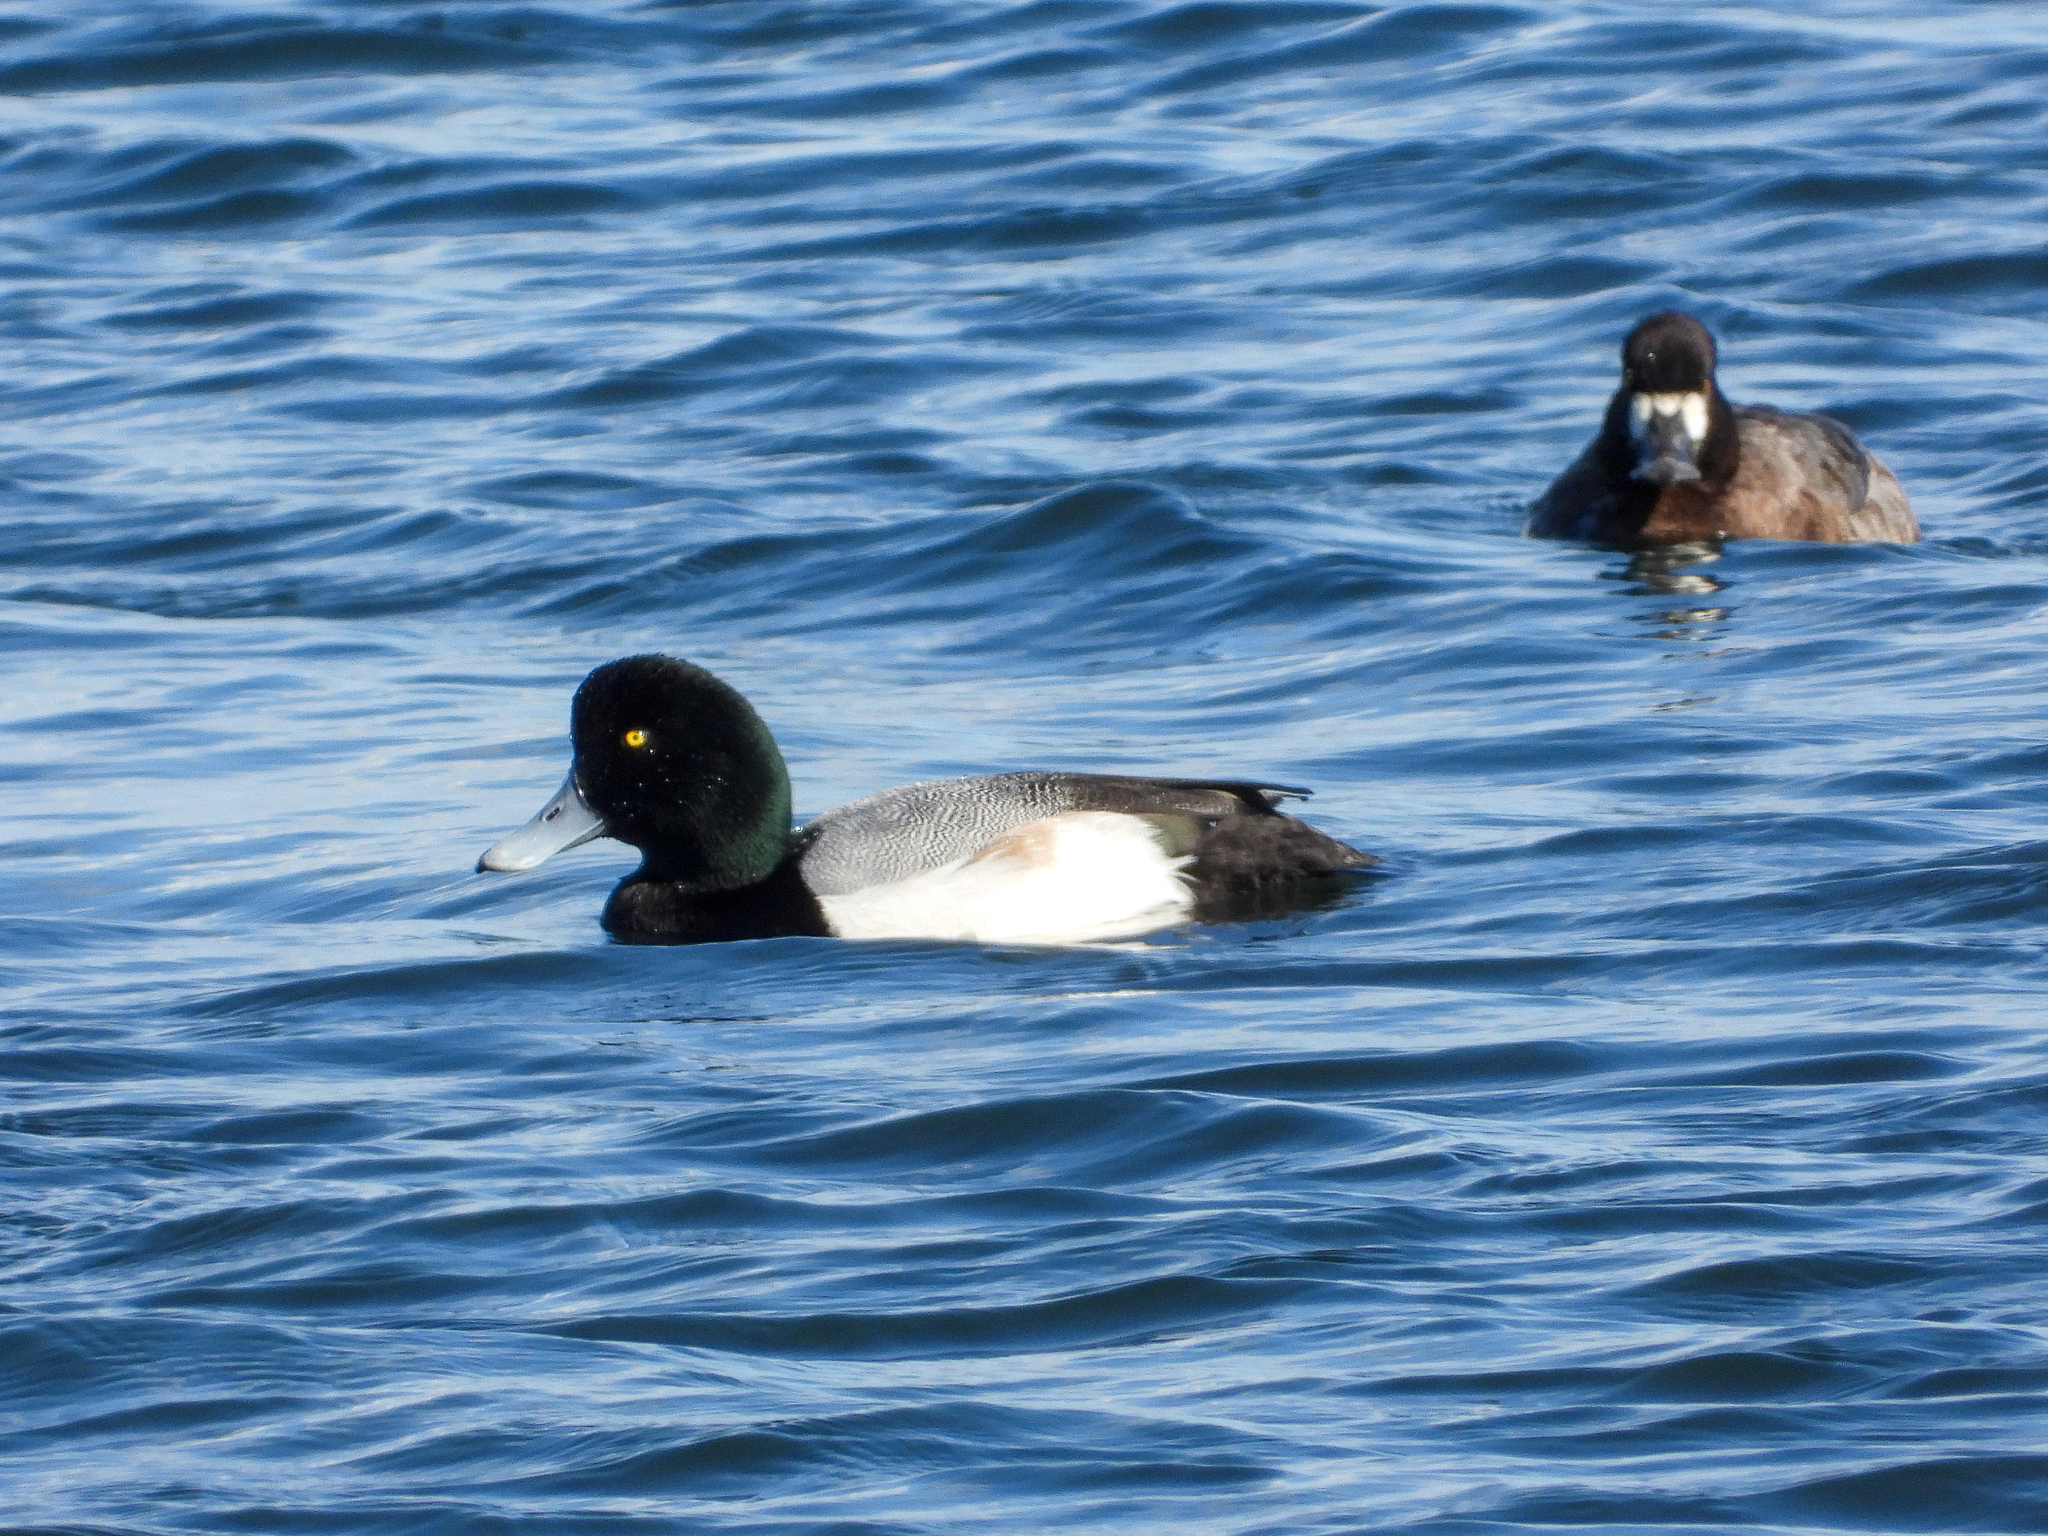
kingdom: Animalia
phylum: Chordata
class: Aves
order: Anseriformes
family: Anatidae
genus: Aythya
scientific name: Aythya marila
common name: Greater scaup
